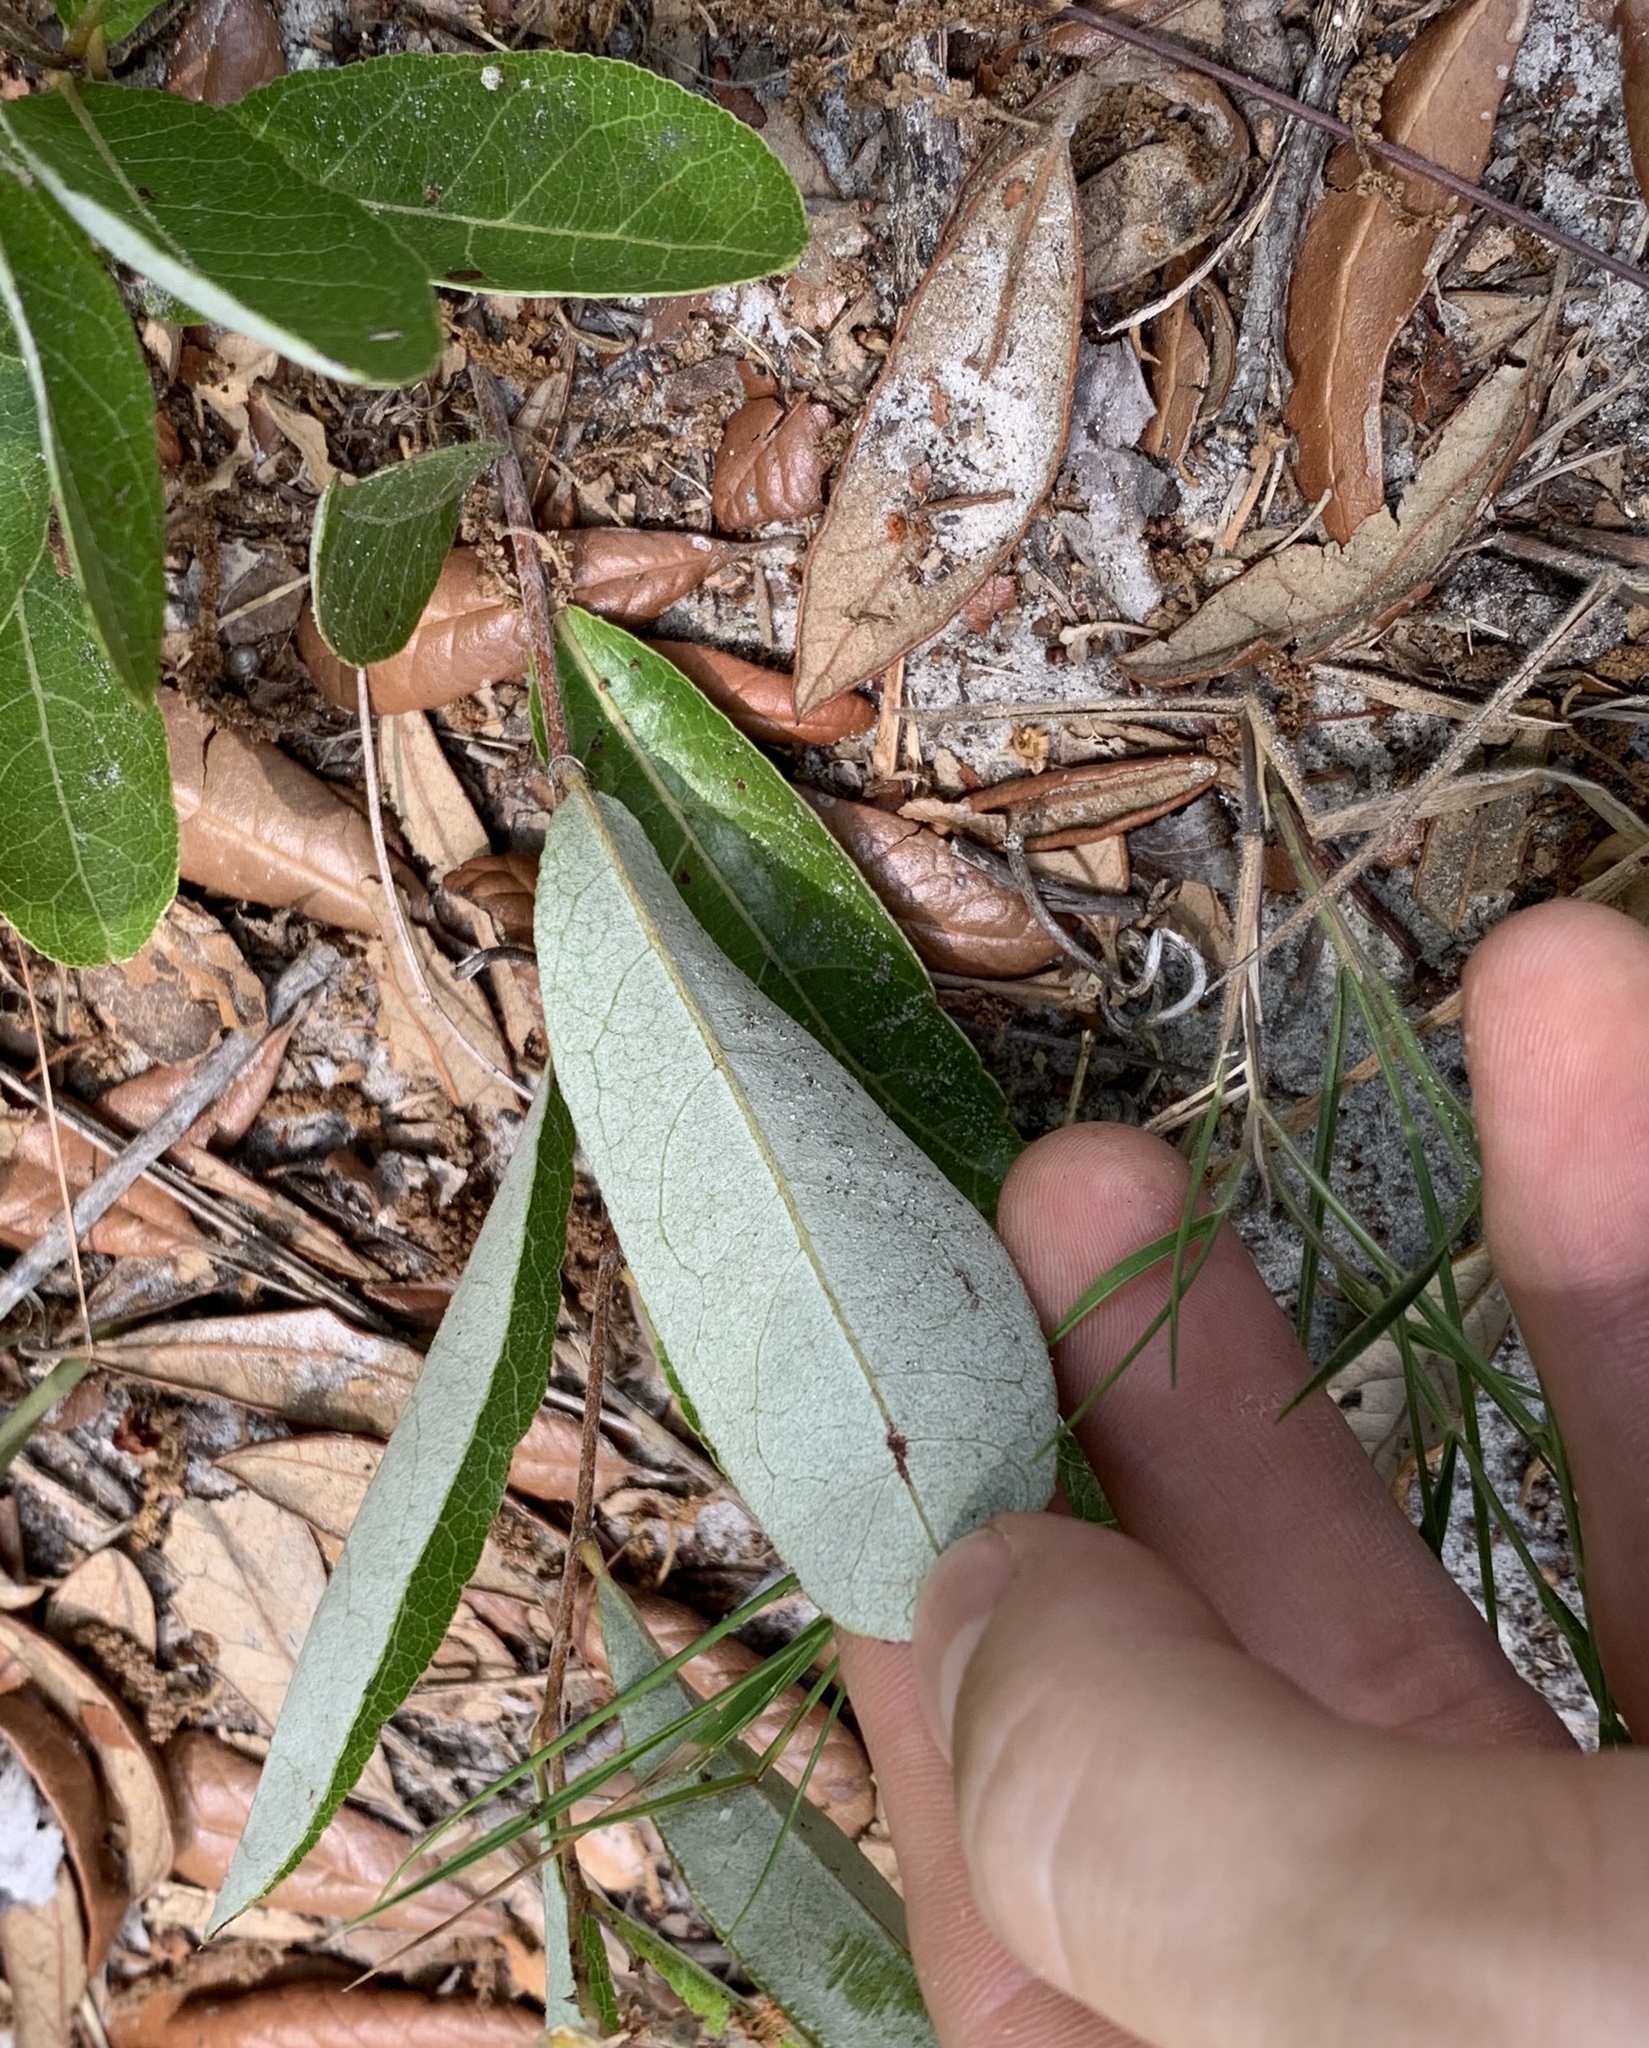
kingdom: Plantae
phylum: Tracheophyta
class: Magnoliopsida
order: Malpighiales
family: Chrysobalanaceae
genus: Geobalanus
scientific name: Geobalanus oblongifolius
